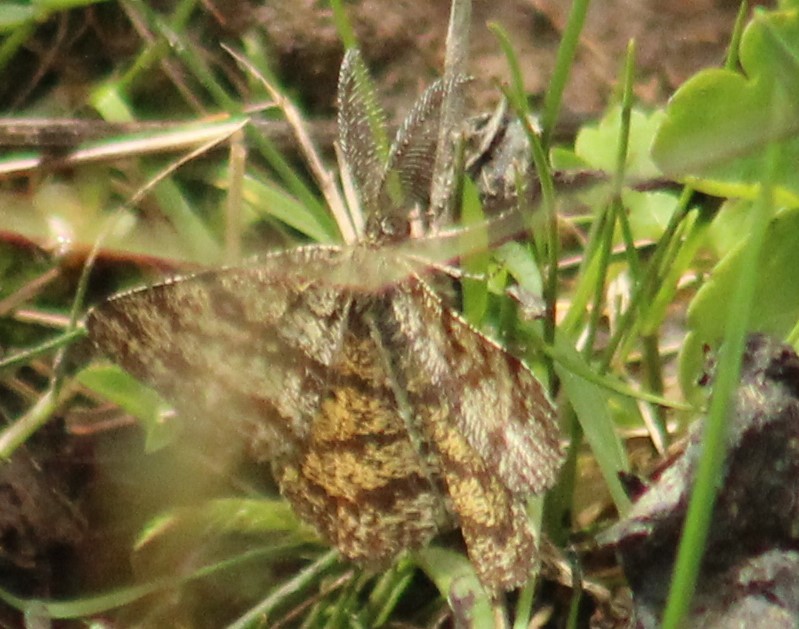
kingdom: Animalia
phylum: Arthropoda
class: Insecta
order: Lepidoptera
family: Geometridae
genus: Ematurga
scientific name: Ematurga atomaria
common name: Common heath
